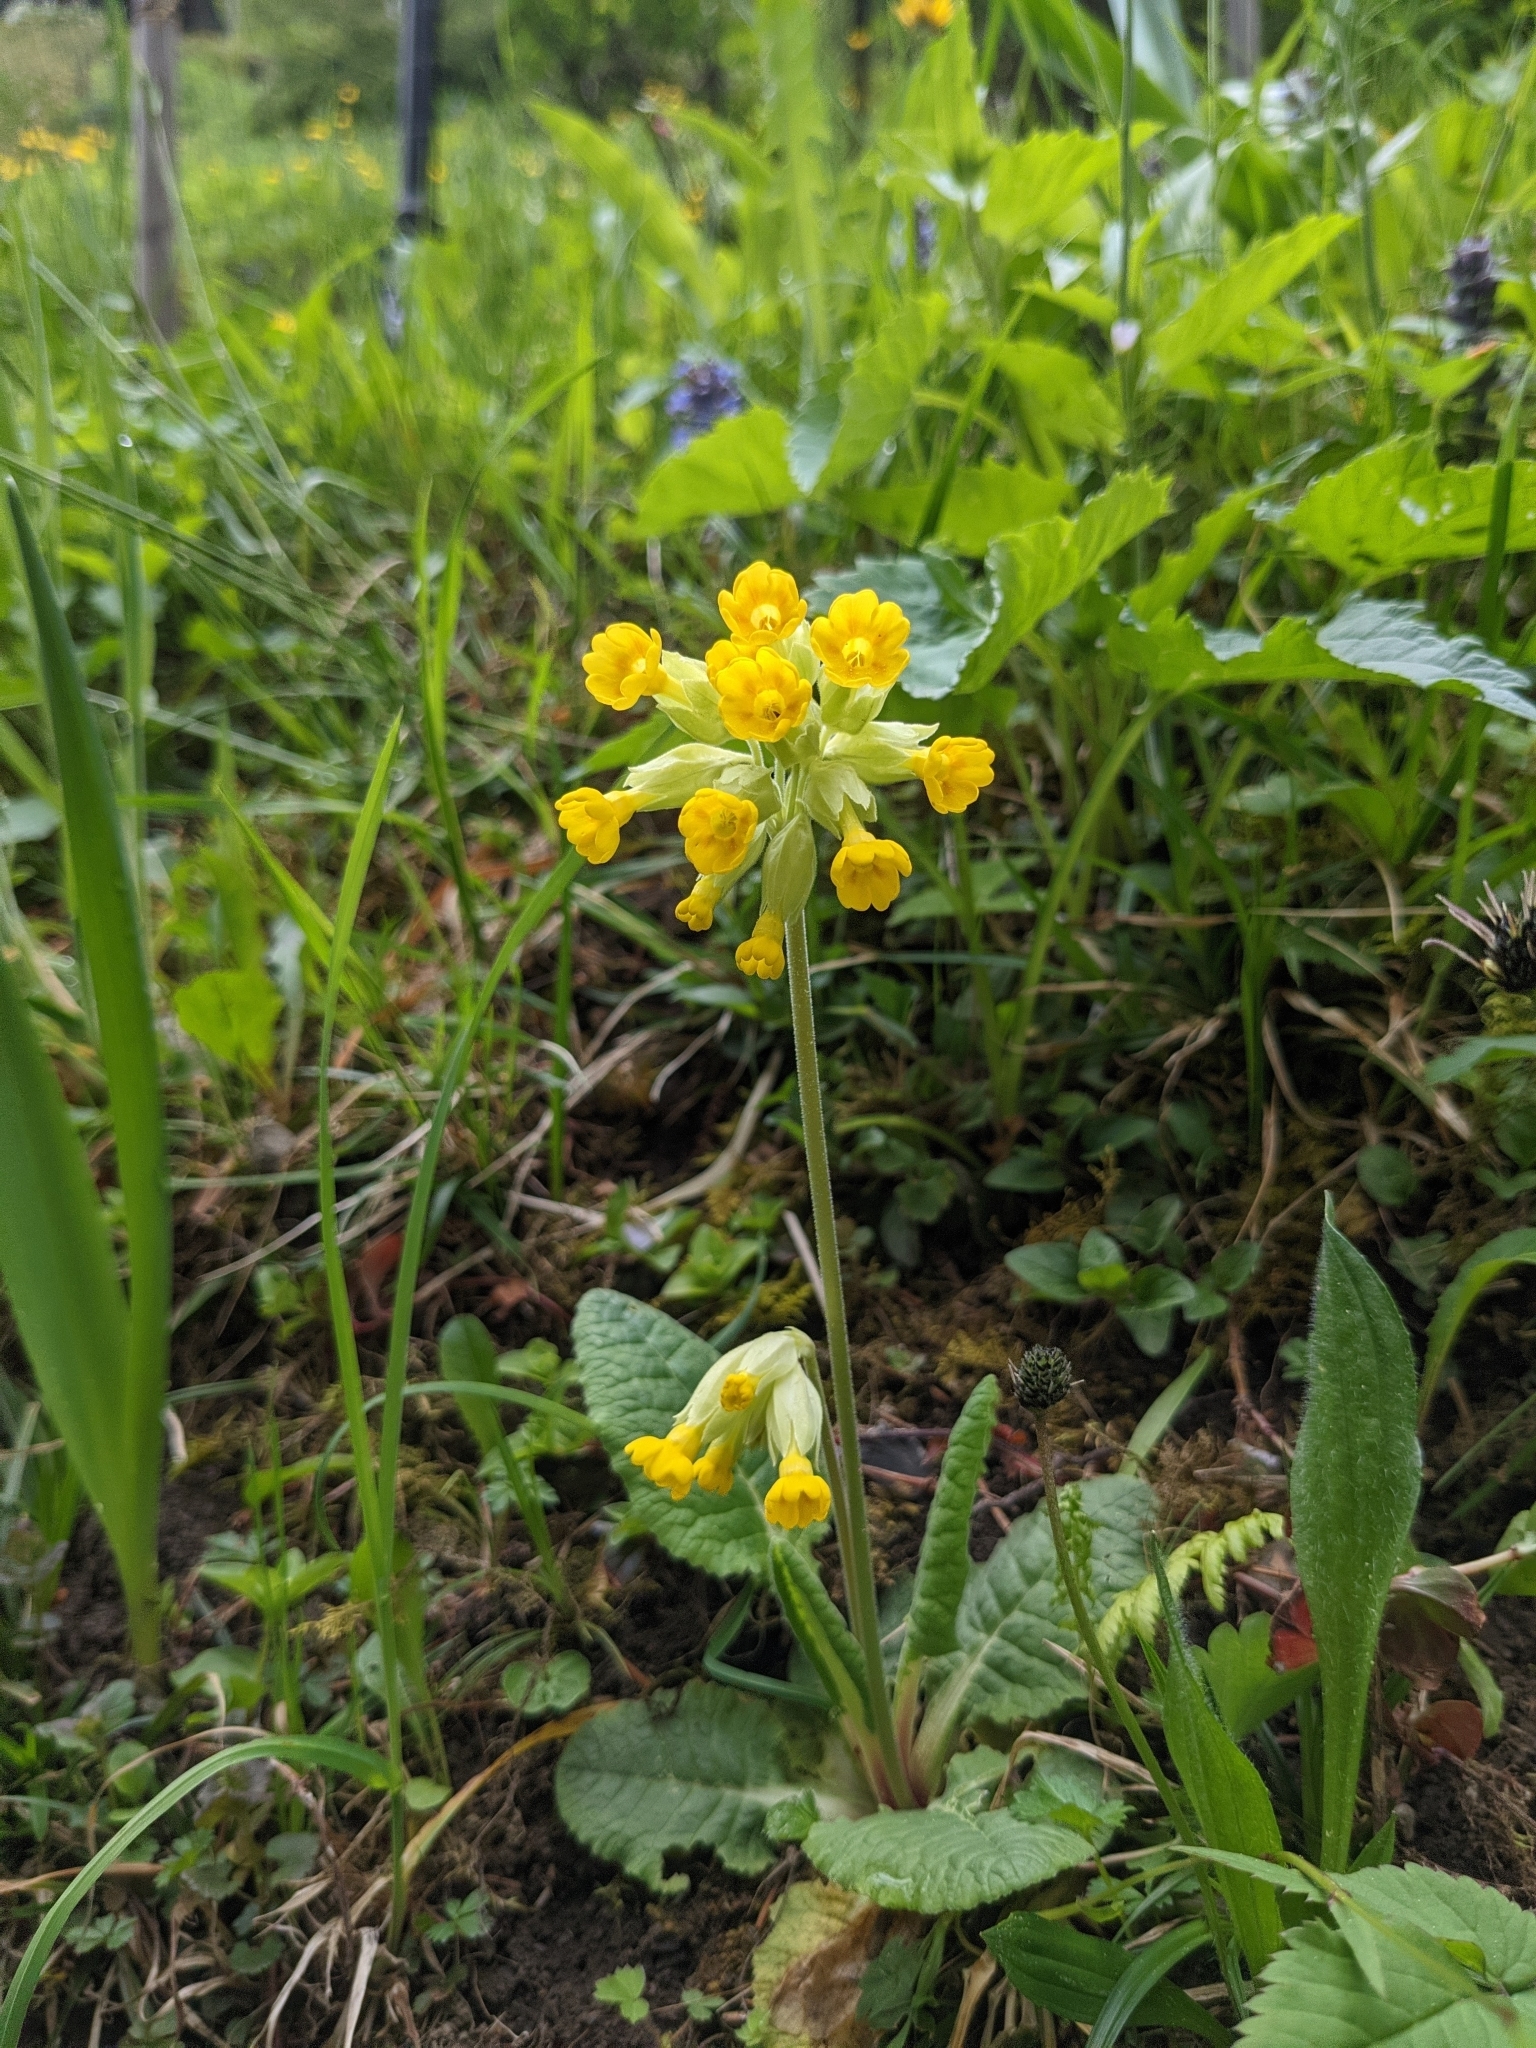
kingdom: Plantae
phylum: Tracheophyta
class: Magnoliopsida
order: Ericales
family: Primulaceae
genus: Primula
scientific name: Primula veris
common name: Cowslip
